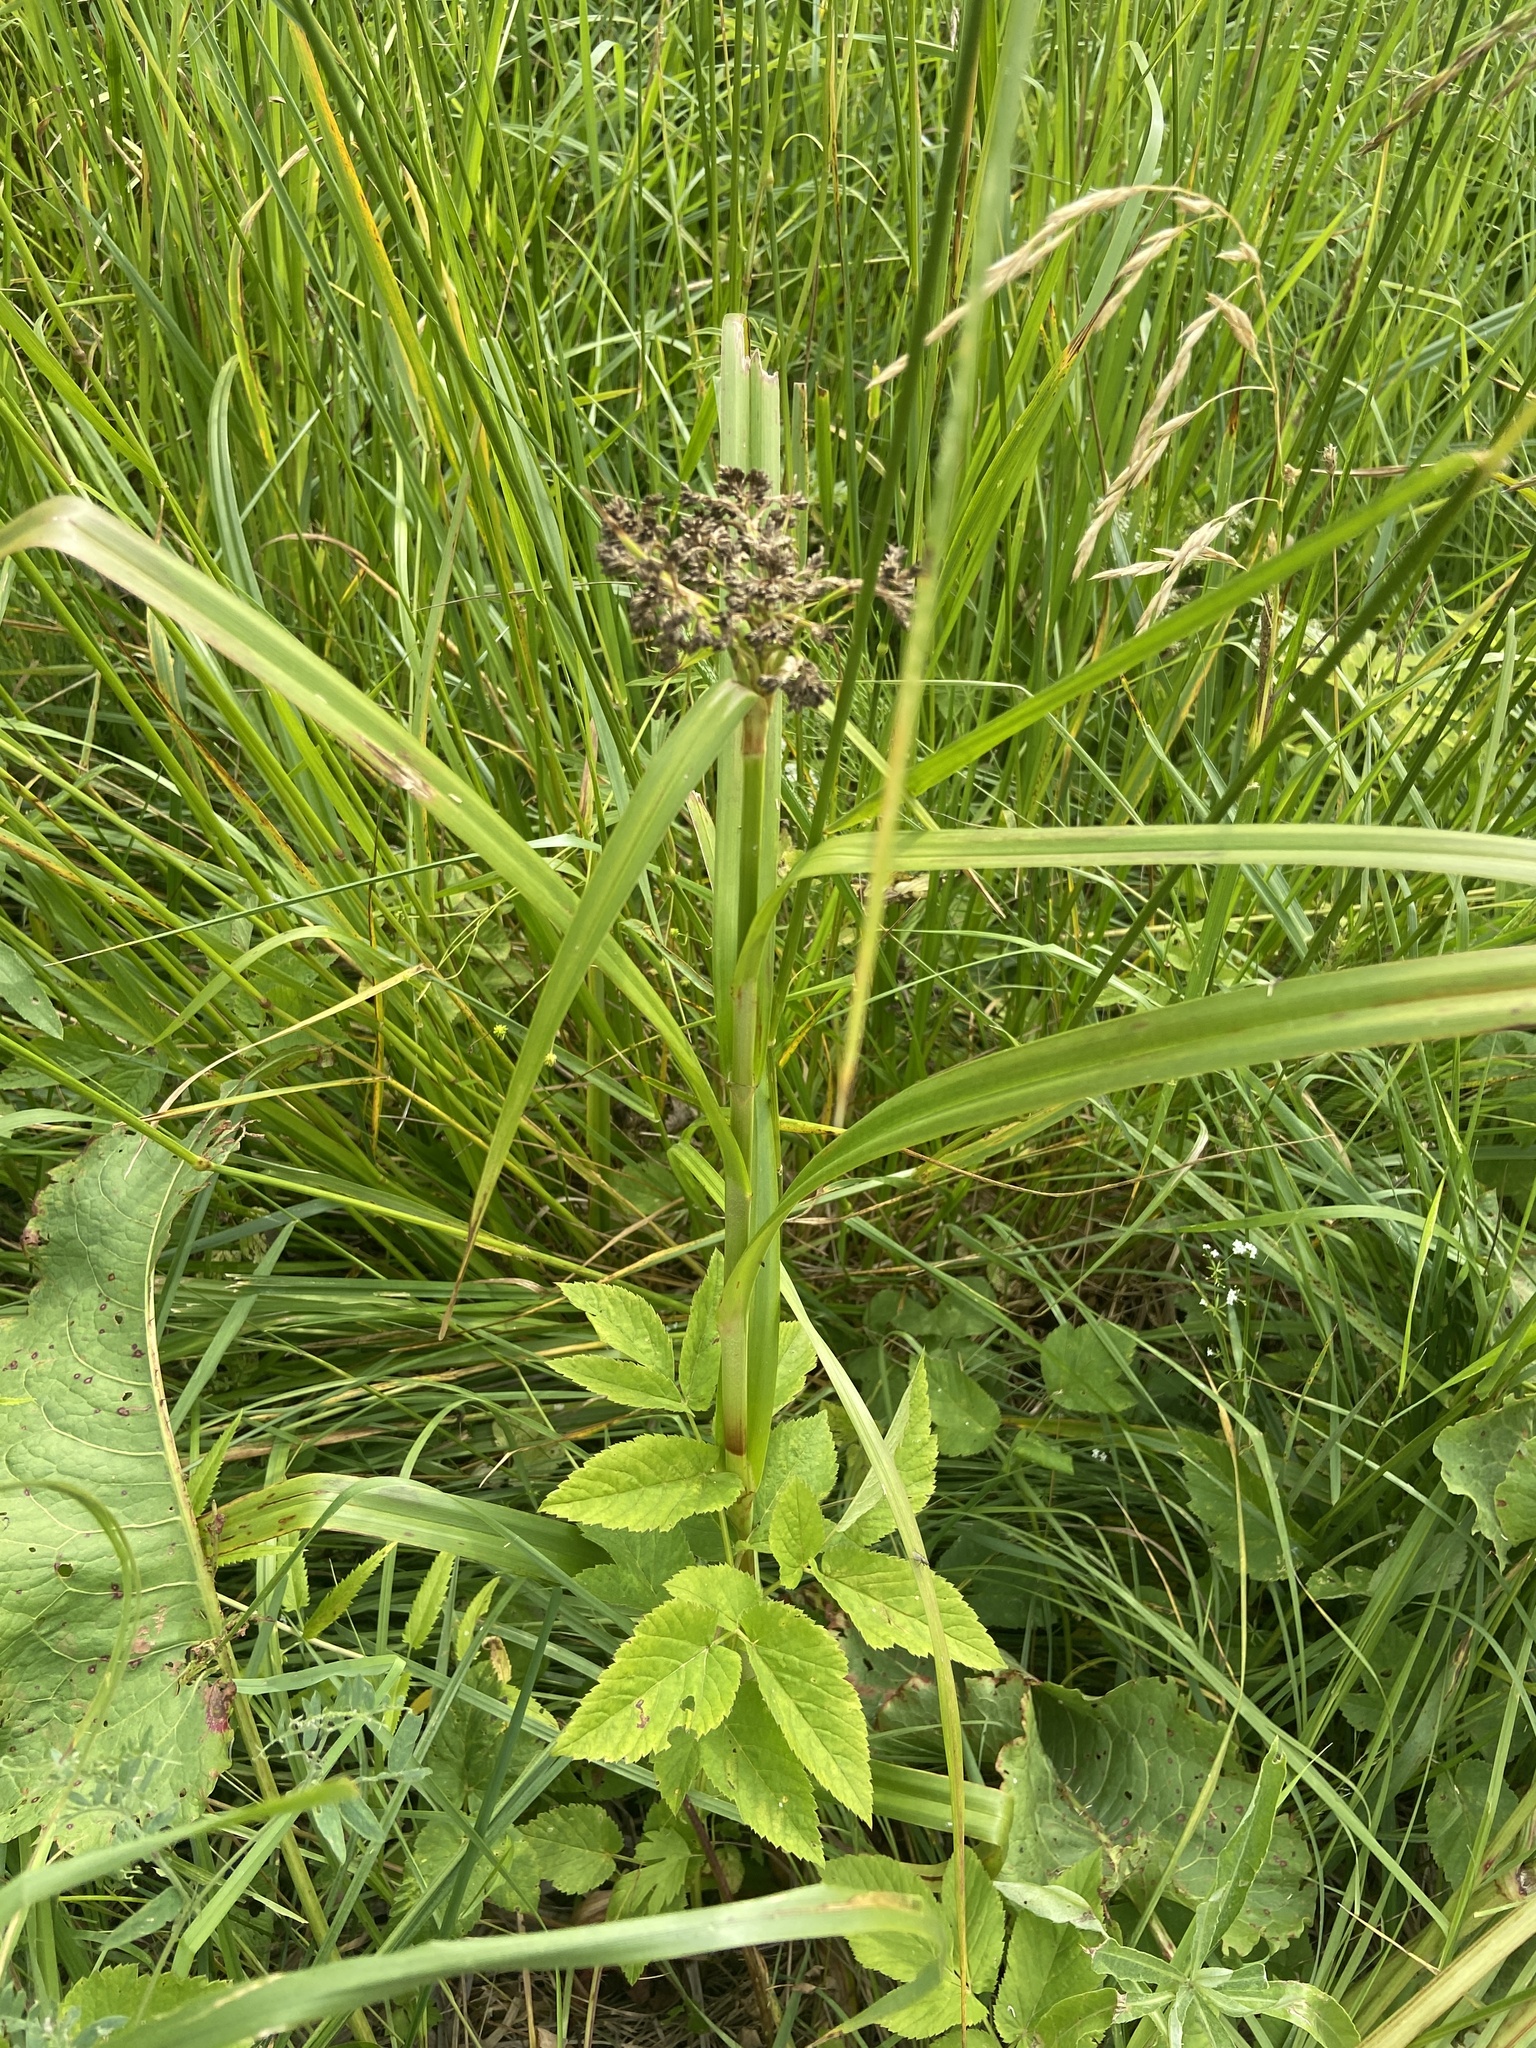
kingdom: Plantae
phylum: Tracheophyta
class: Liliopsida
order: Poales
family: Cyperaceae
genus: Scirpus
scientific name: Scirpus sylvaticus
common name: Wood club-rush
